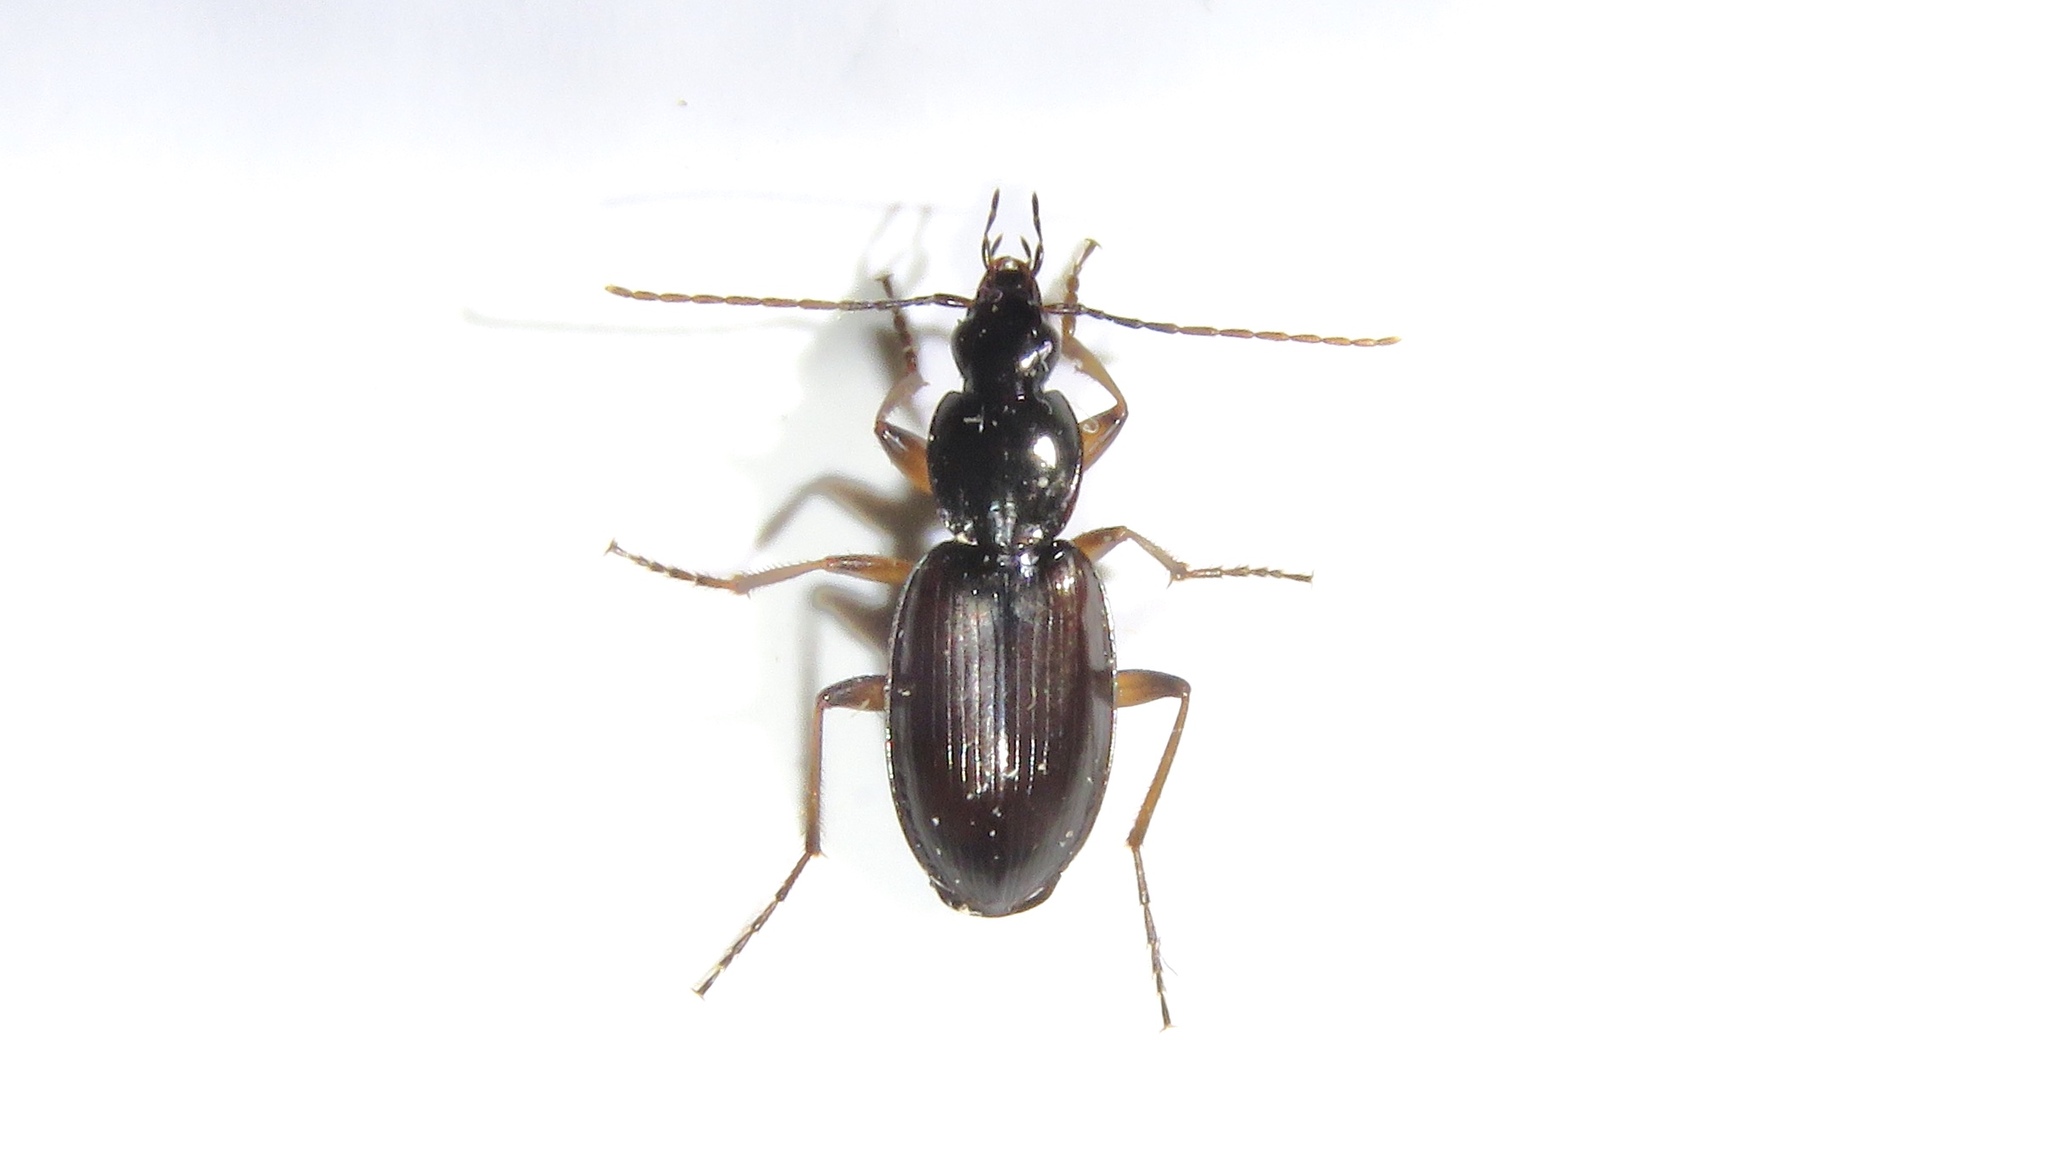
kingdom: Animalia
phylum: Arthropoda
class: Insecta
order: Coleoptera
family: Carabidae
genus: Agonum
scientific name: Agonum gratiosum
